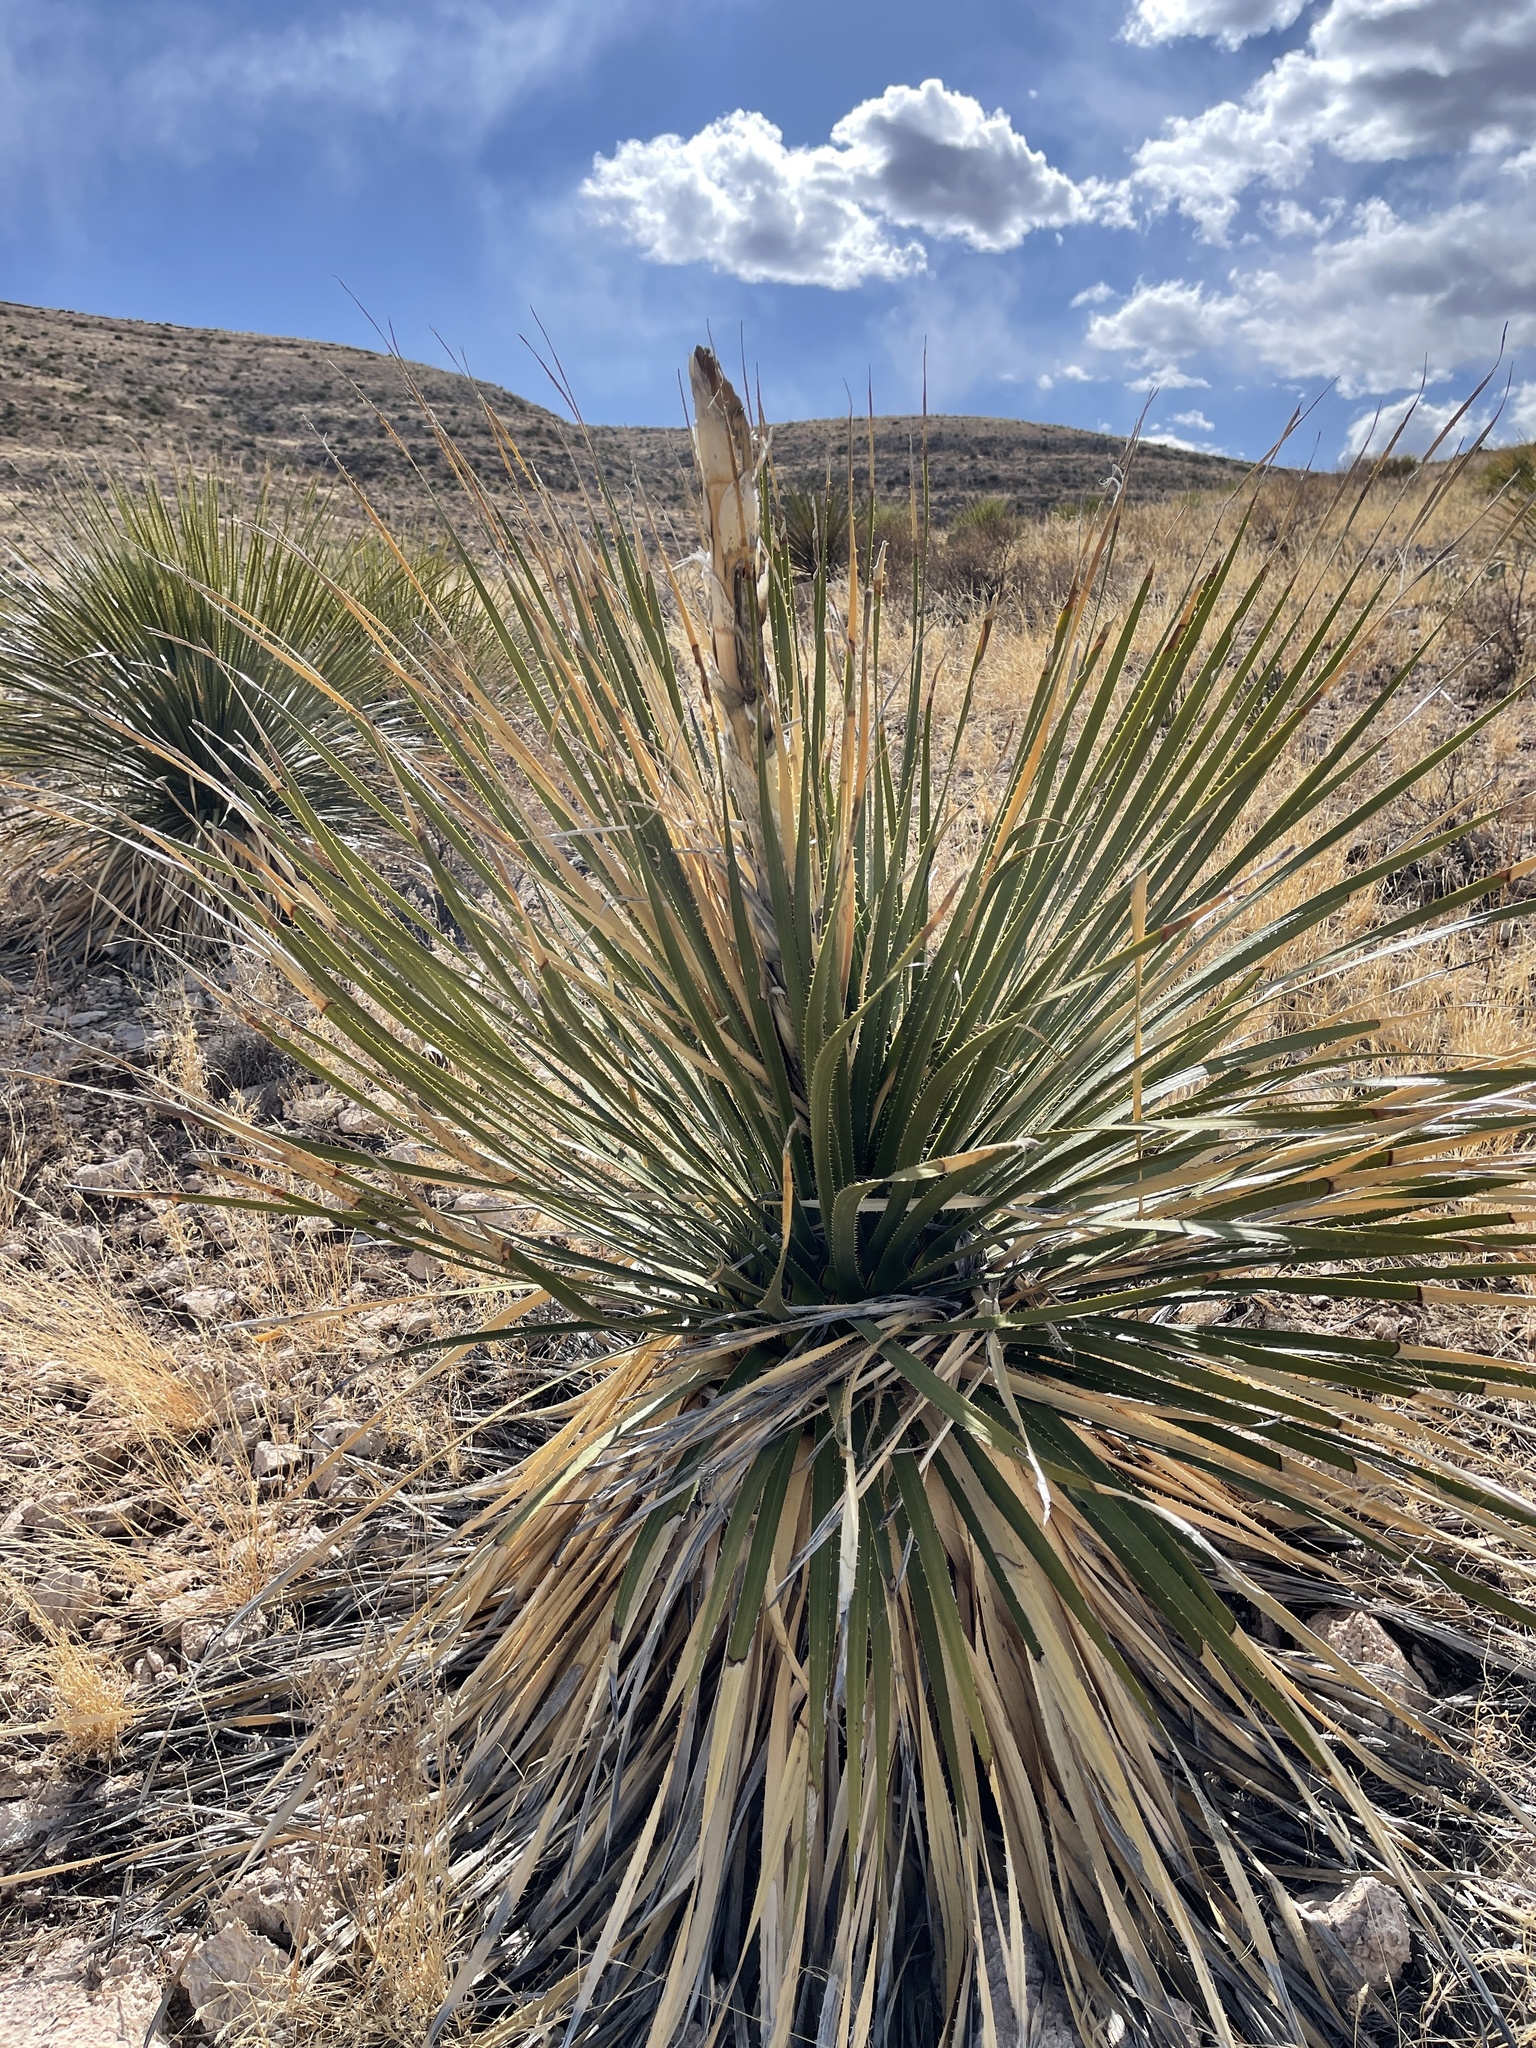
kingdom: Plantae
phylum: Tracheophyta
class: Liliopsida
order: Asparagales
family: Asparagaceae
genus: Dasylirion
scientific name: Dasylirion leiophyllum
